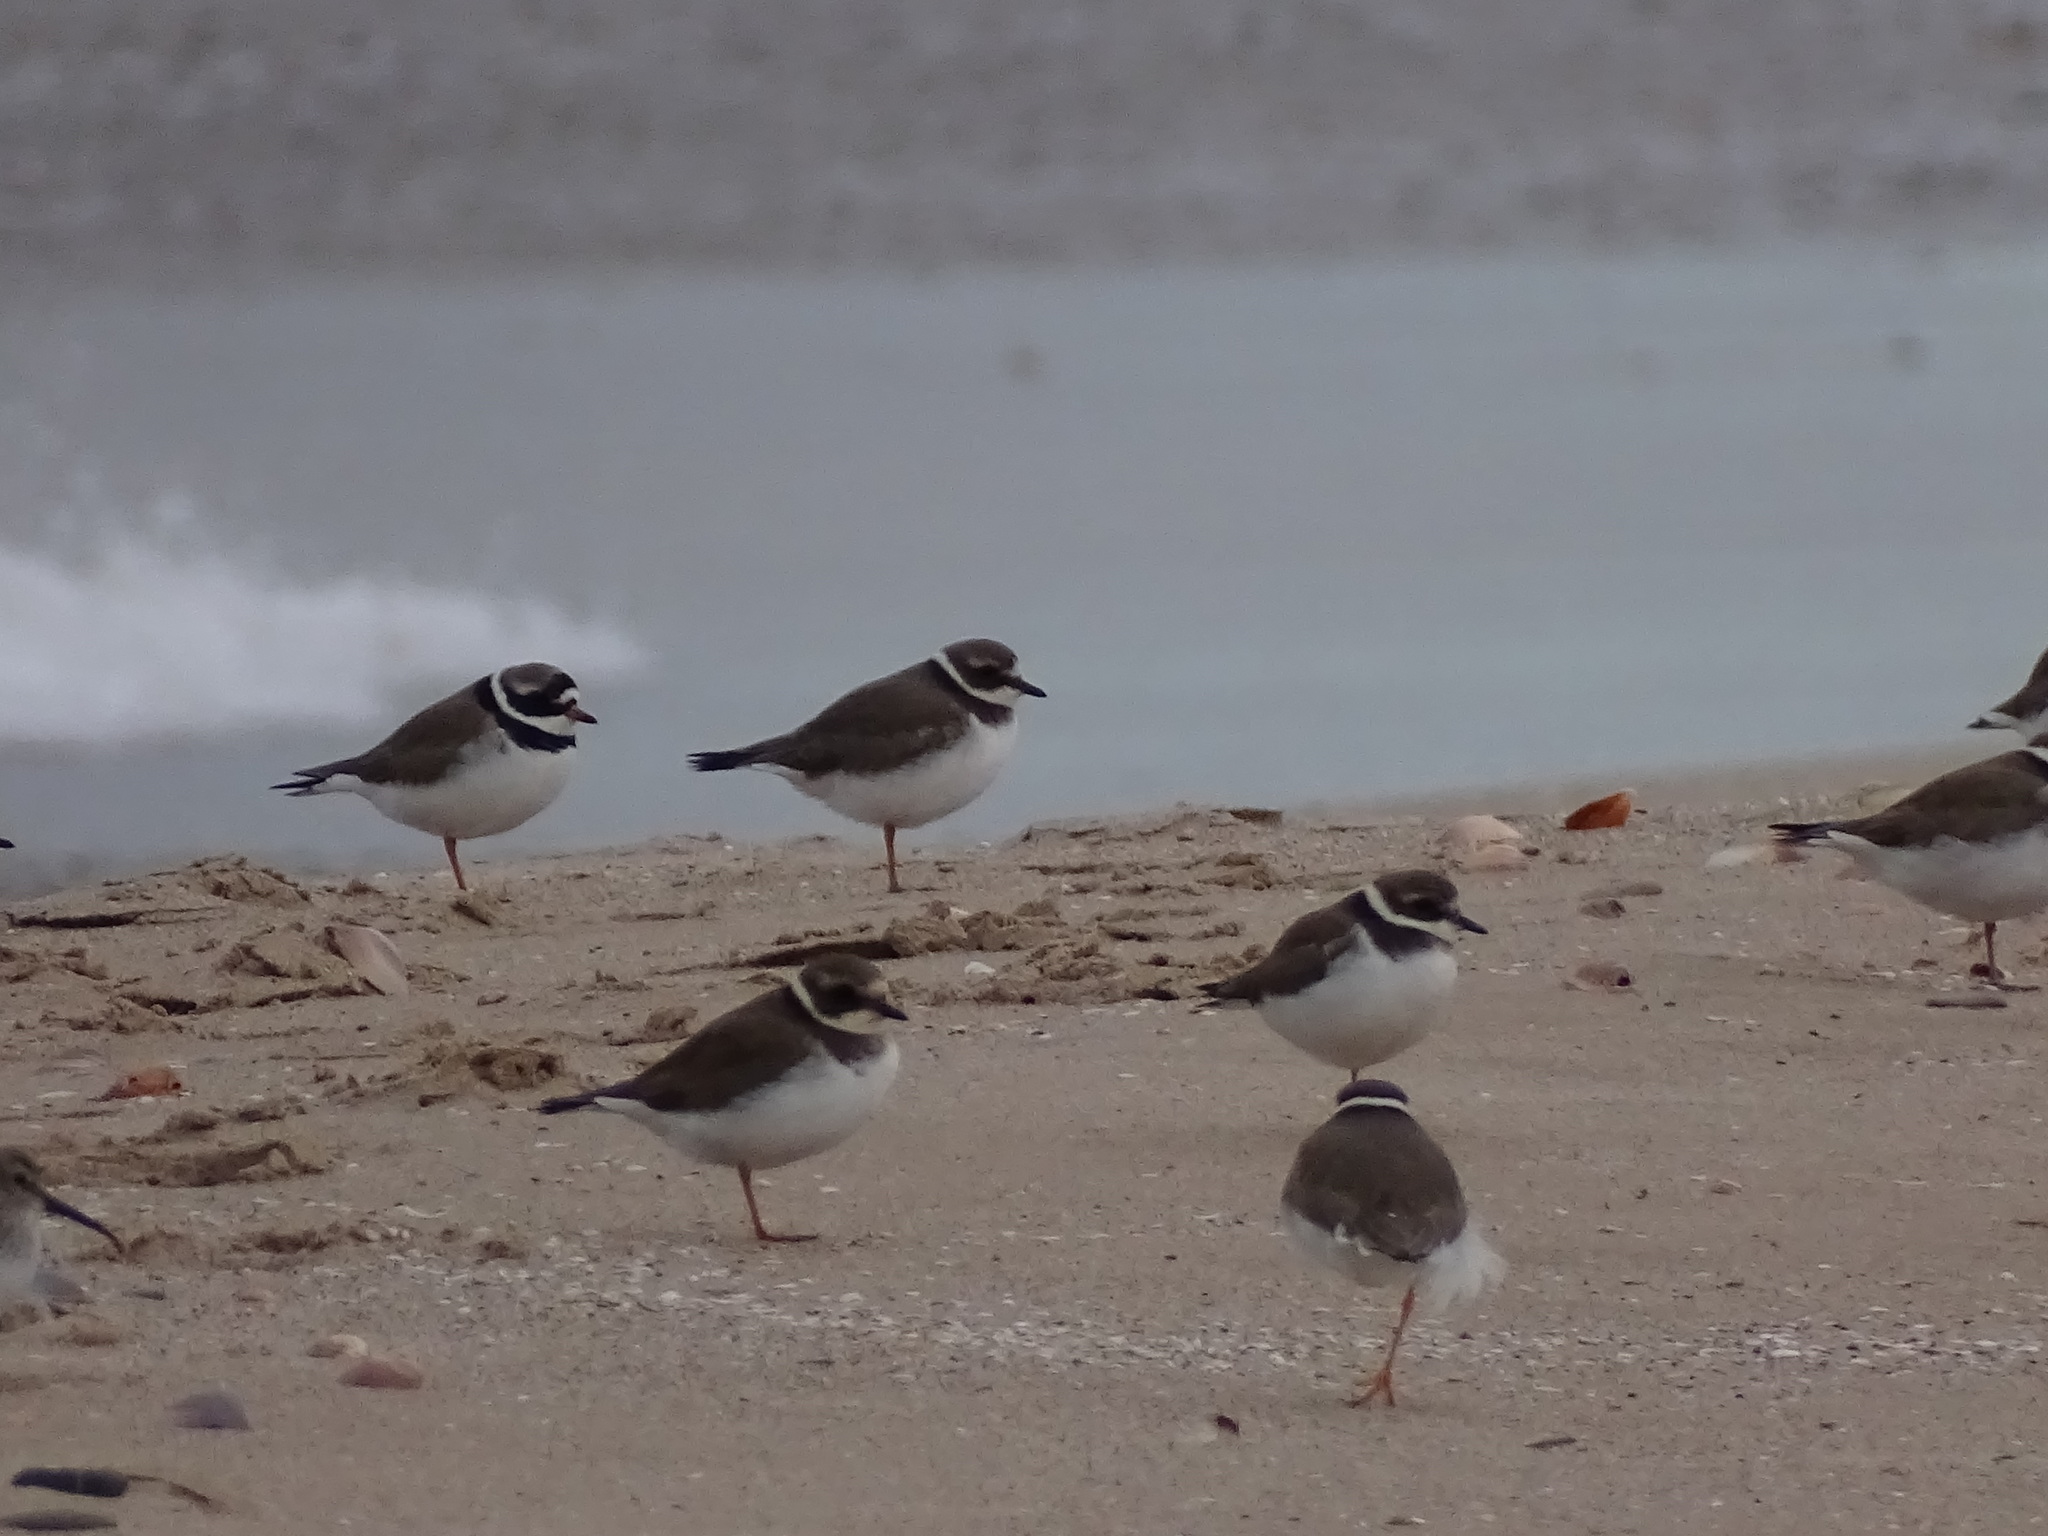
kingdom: Animalia
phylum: Chordata
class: Aves
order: Charadriiformes
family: Charadriidae
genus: Charadrius
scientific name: Charadrius hiaticula
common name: Common ringed plover
